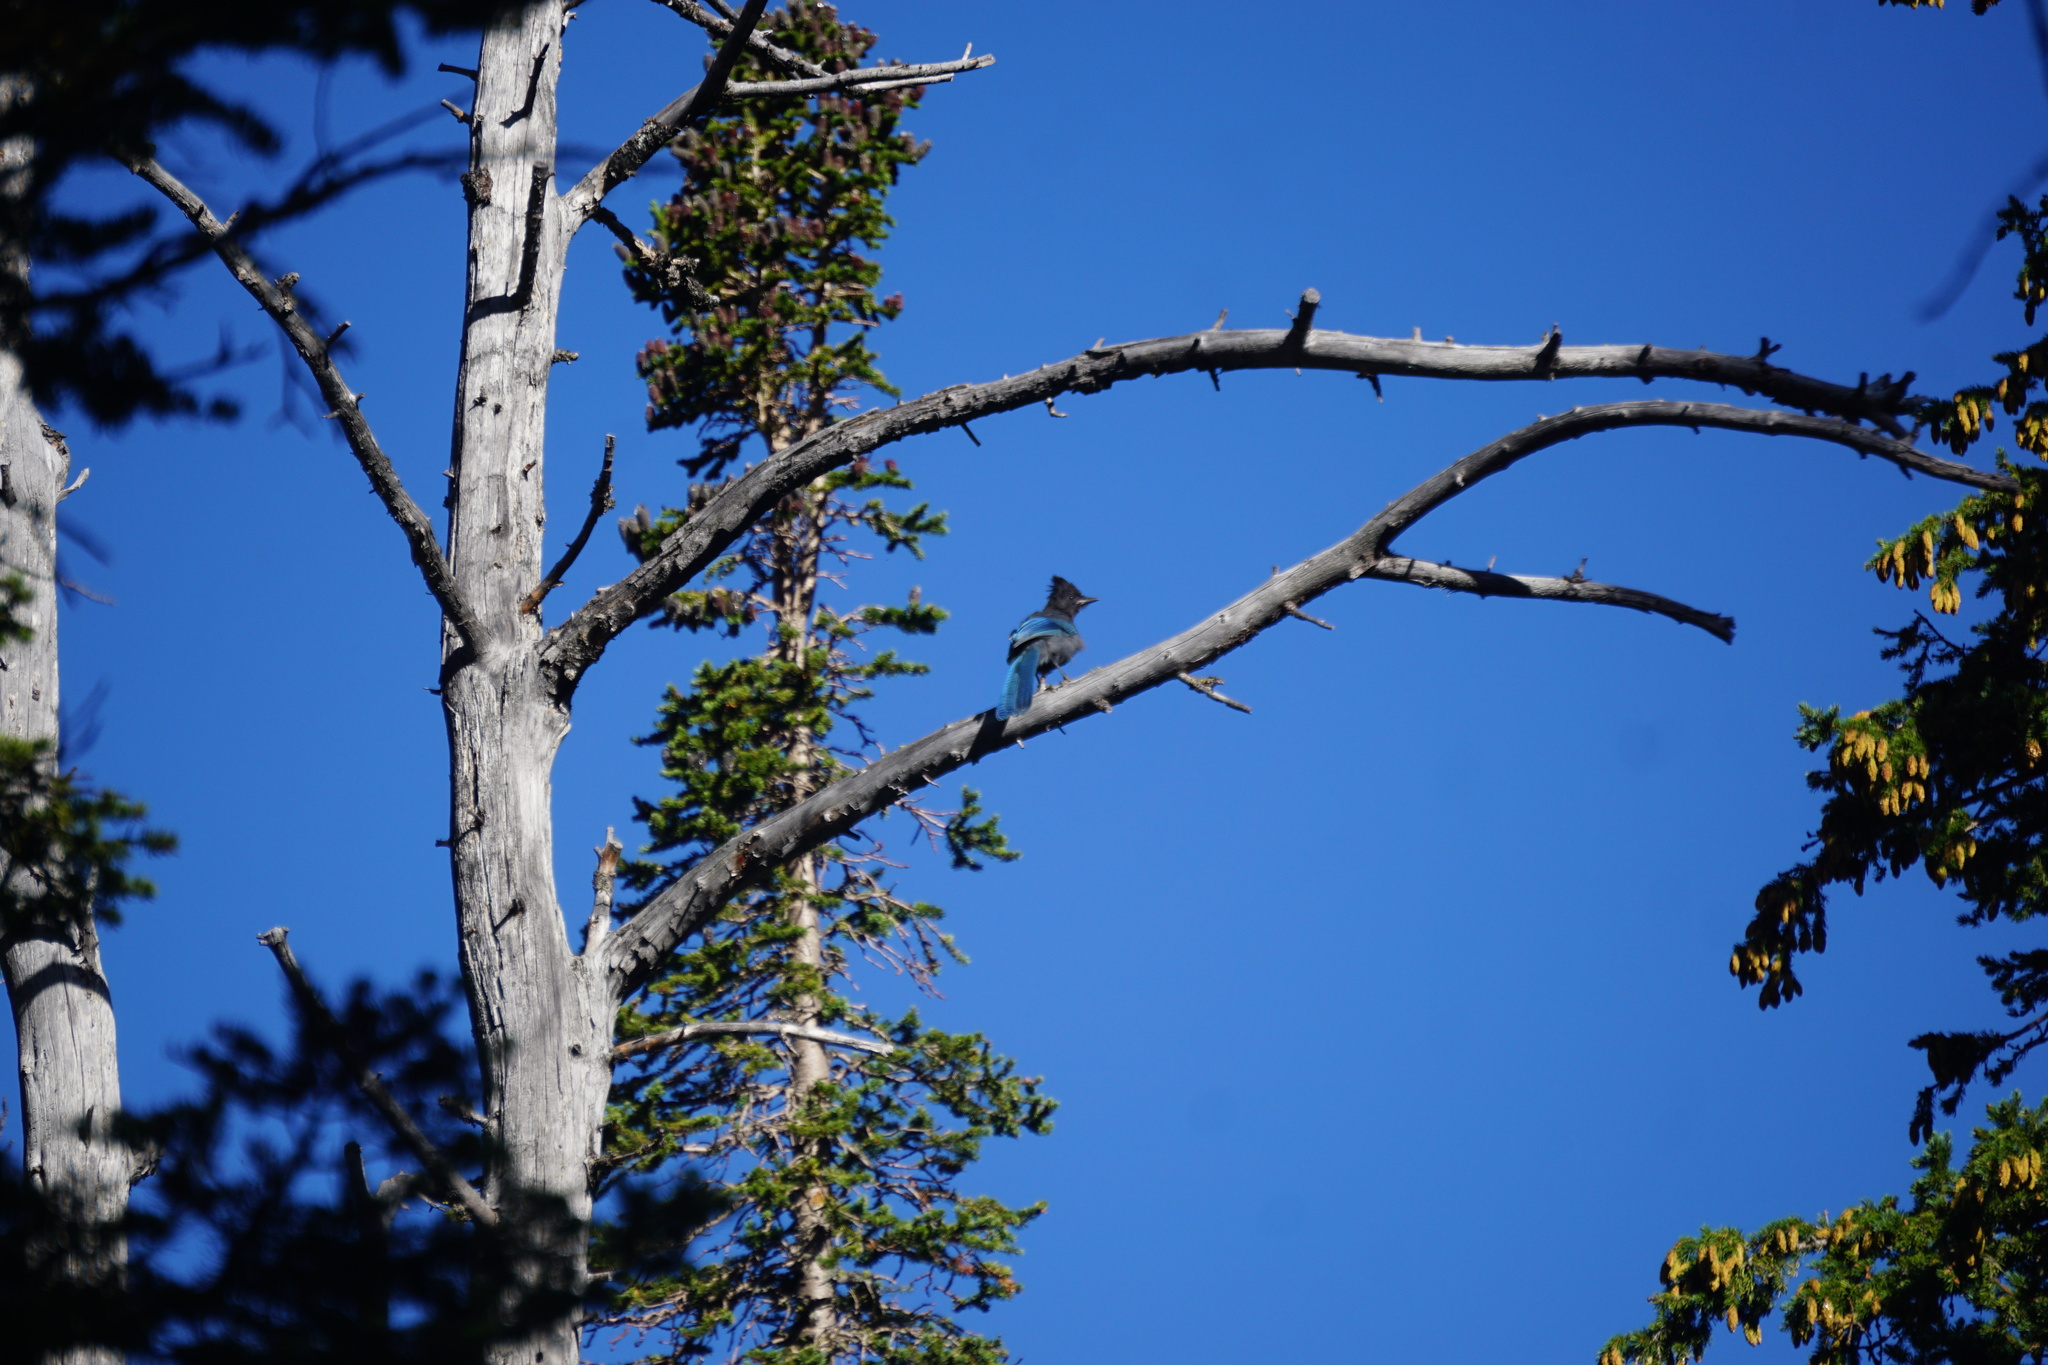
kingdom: Animalia
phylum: Chordata
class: Aves
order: Passeriformes
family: Corvidae
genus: Cyanocitta
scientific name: Cyanocitta stelleri
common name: Steller's jay
